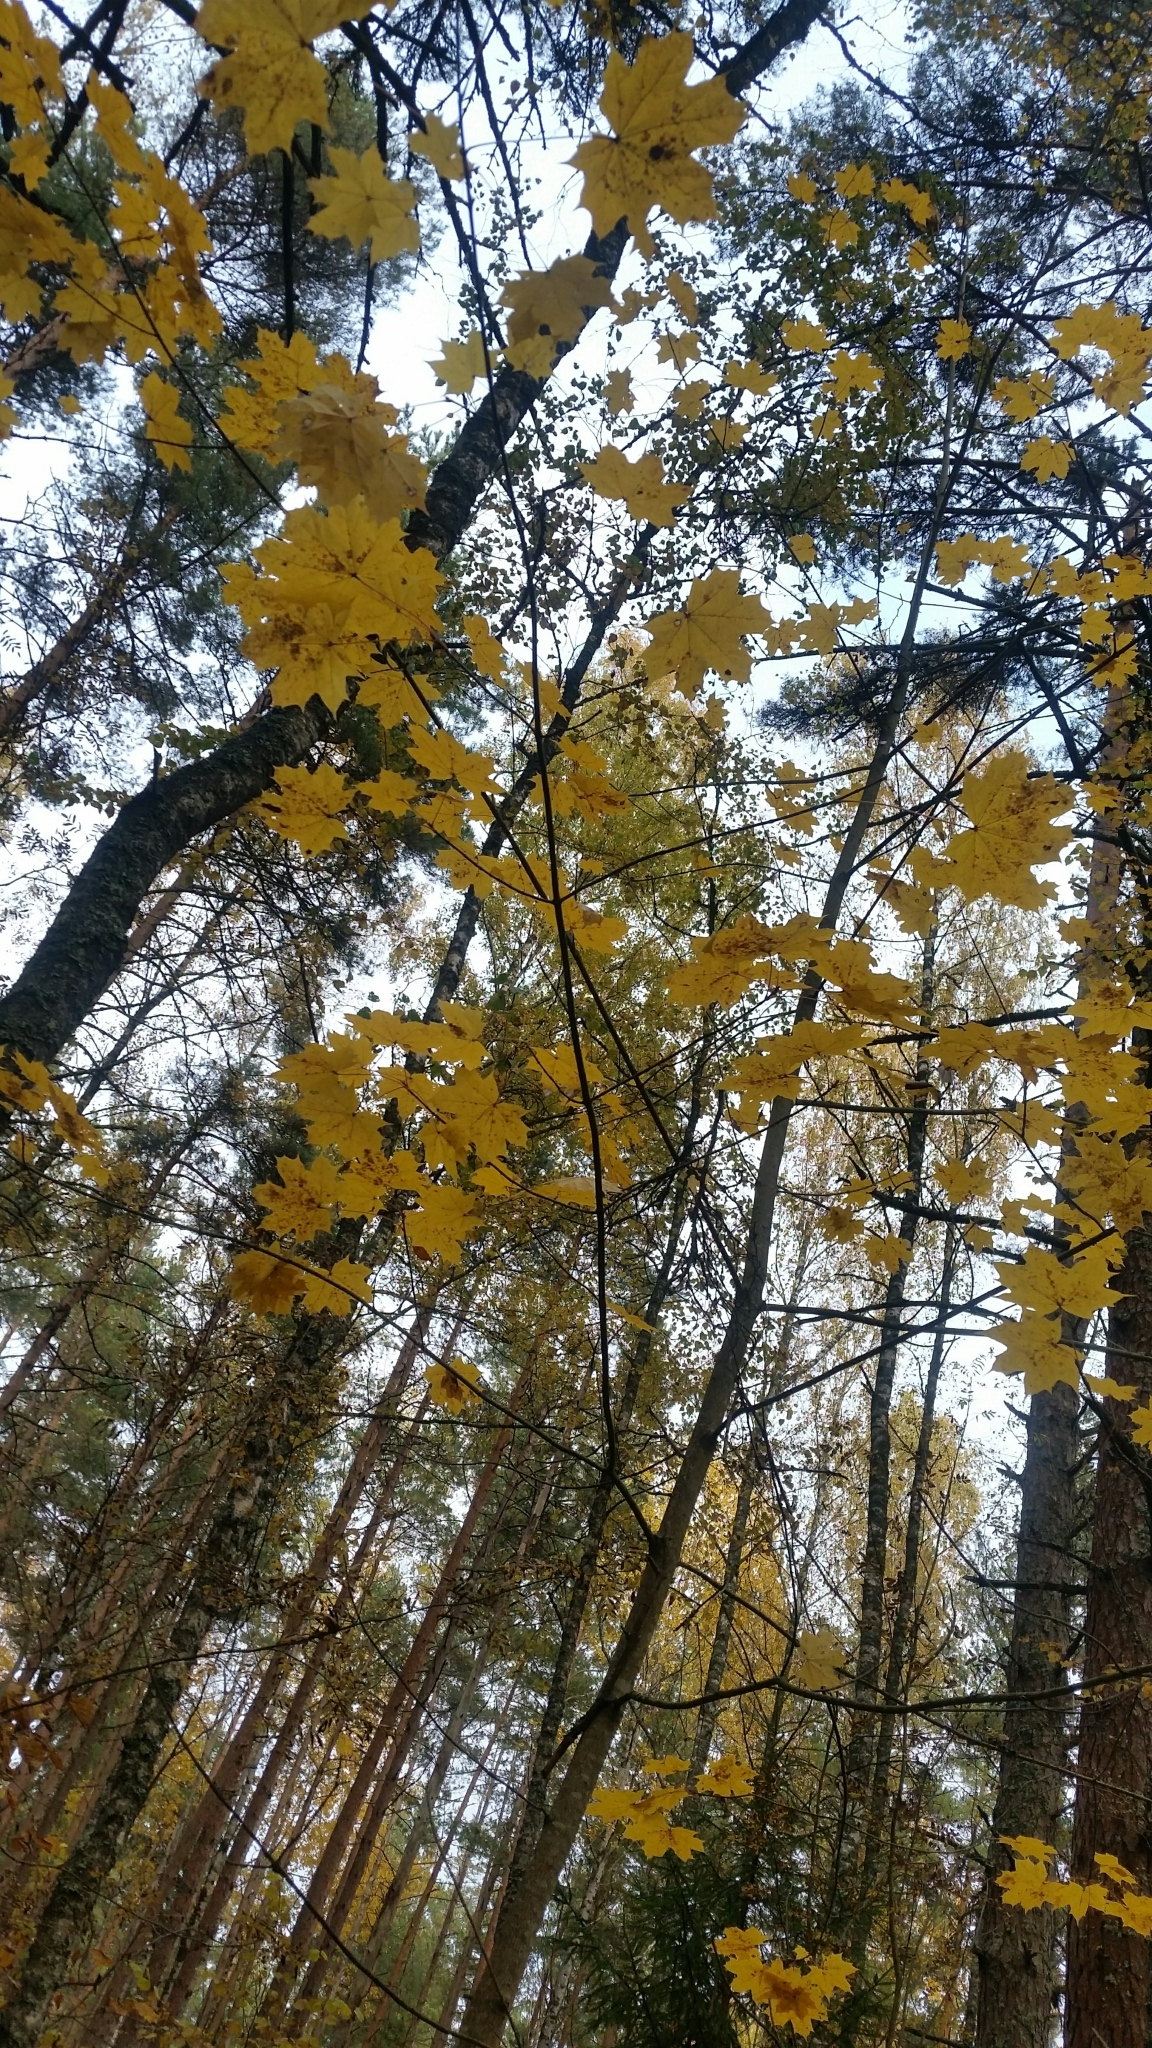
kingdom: Plantae
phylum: Tracheophyta
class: Magnoliopsida
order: Sapindales
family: Sapindaceae
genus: Acer
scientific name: Acer platanoides
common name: Norway maple
